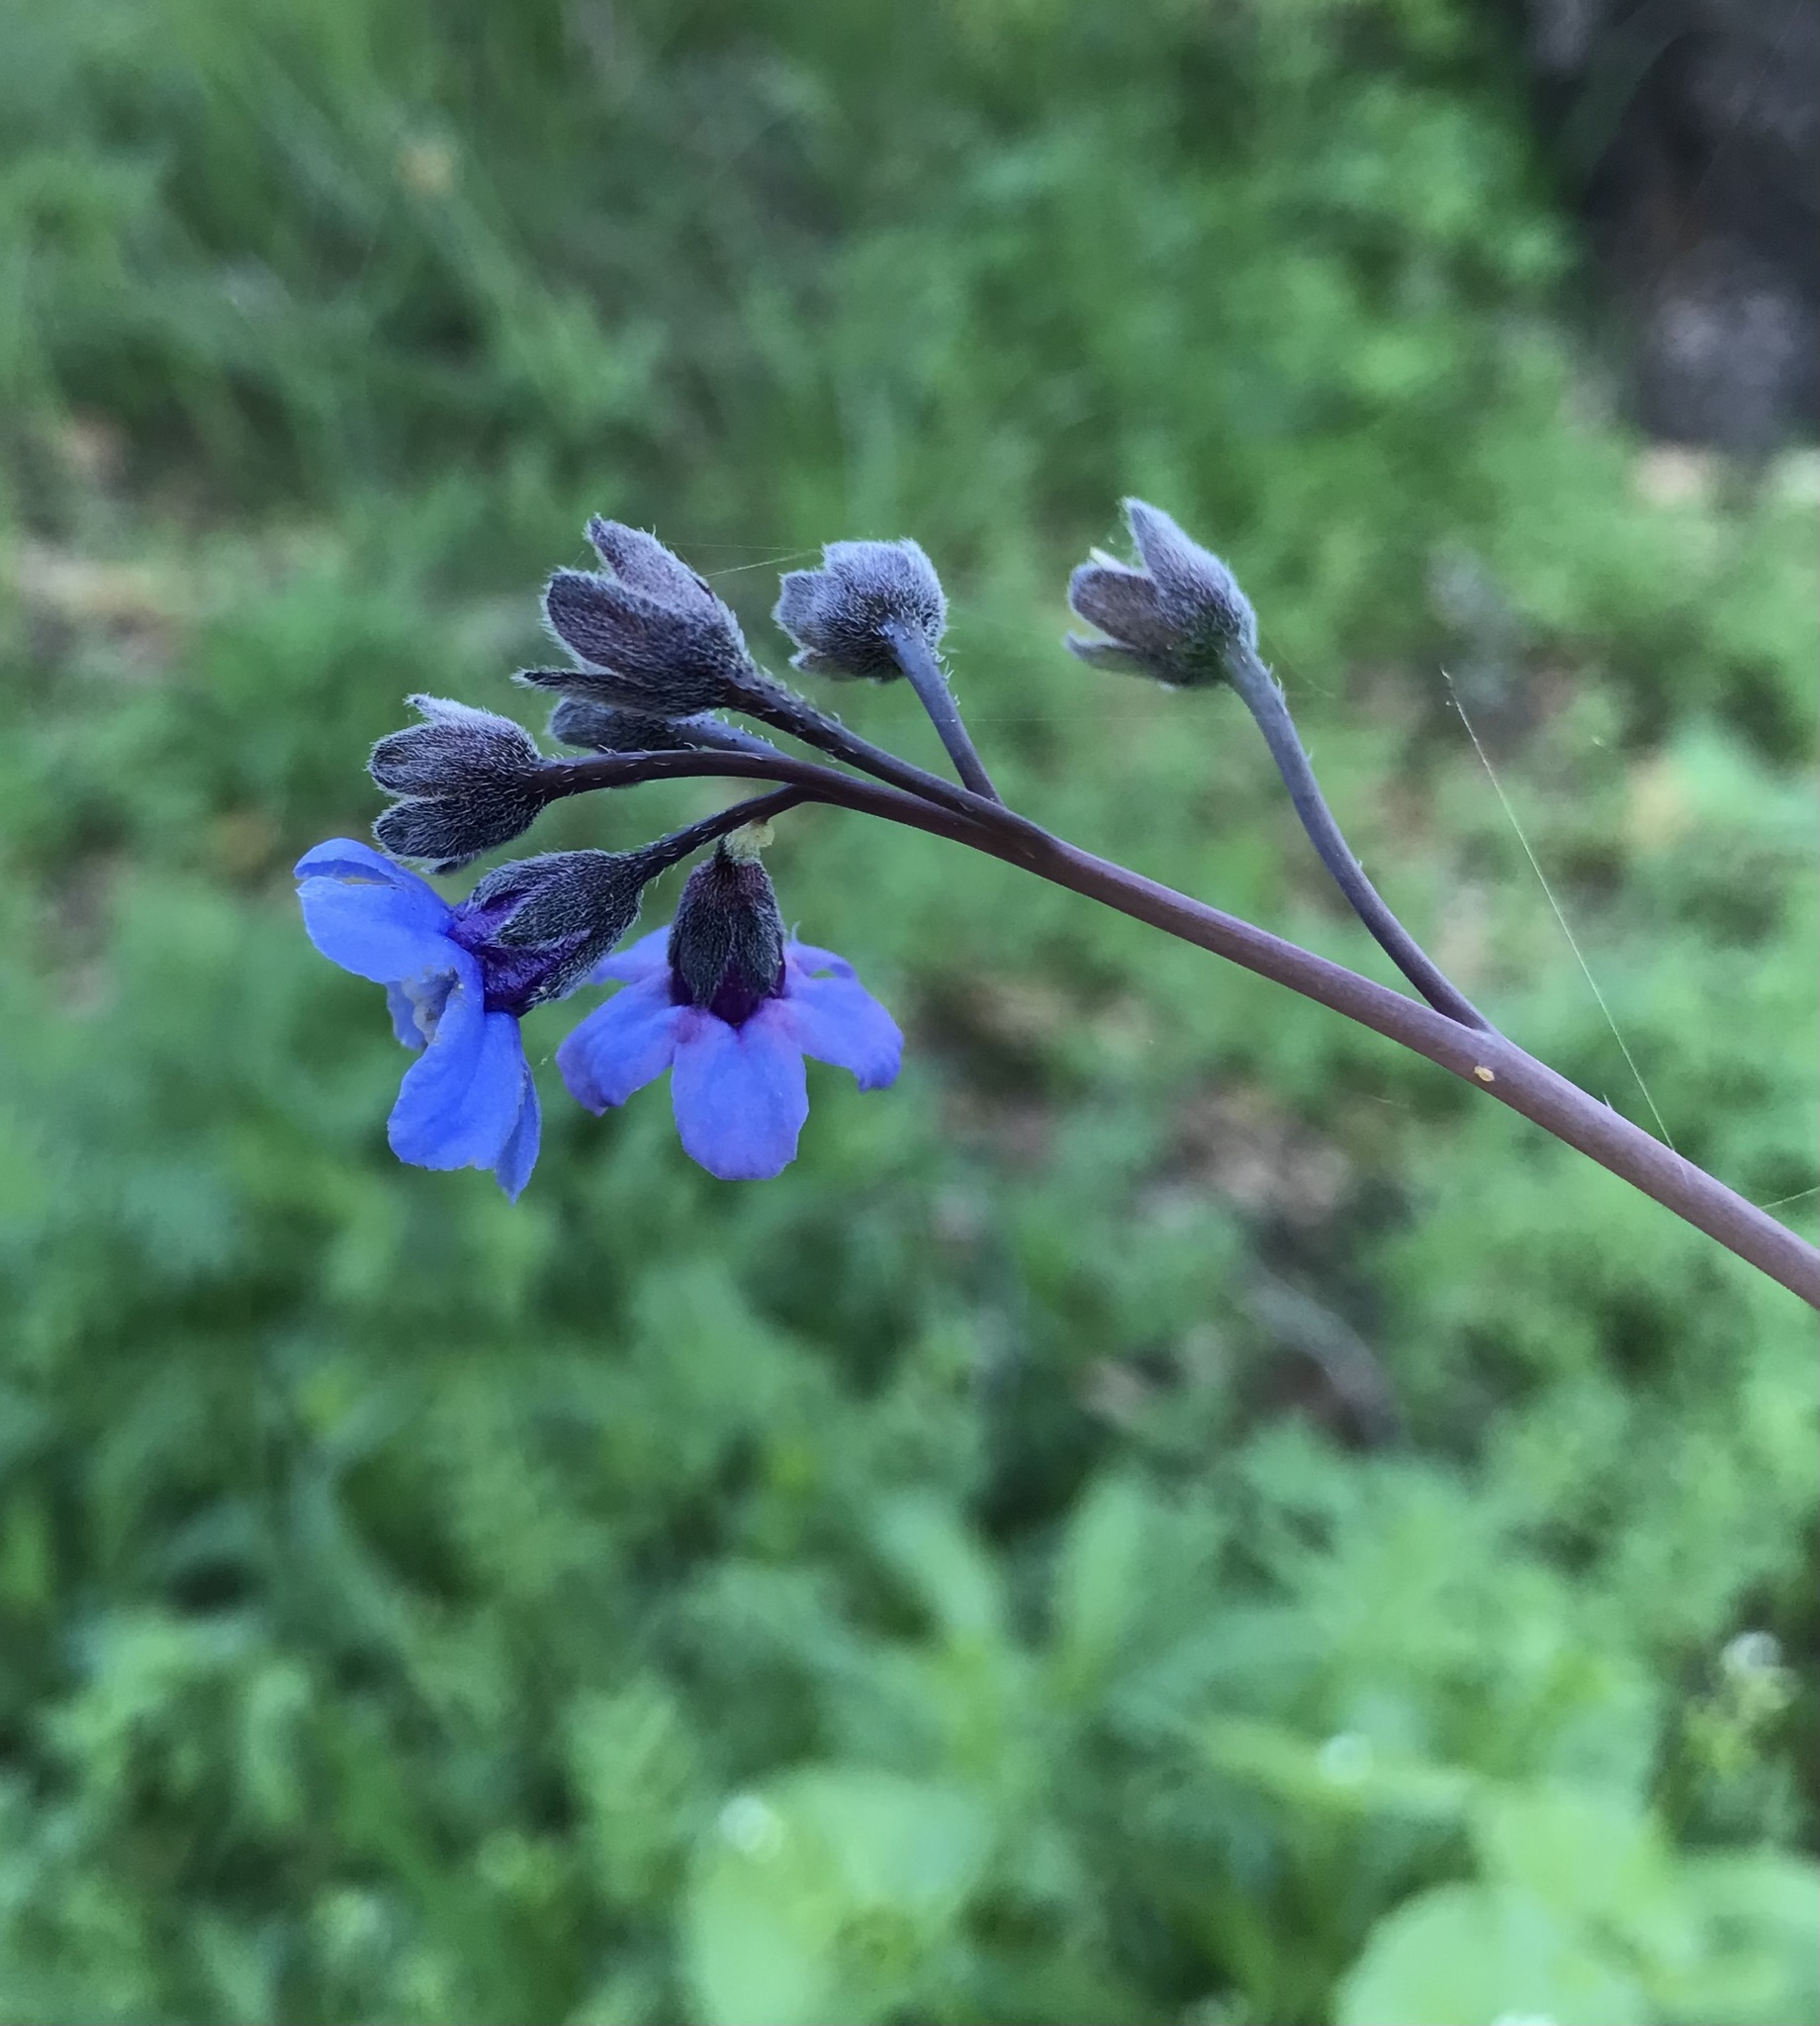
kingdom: Plantae
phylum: Tracheophyta
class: Magnoliopsida
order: Boraginales
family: Boraginaceae
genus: Adelinia
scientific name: Adelinia grande
